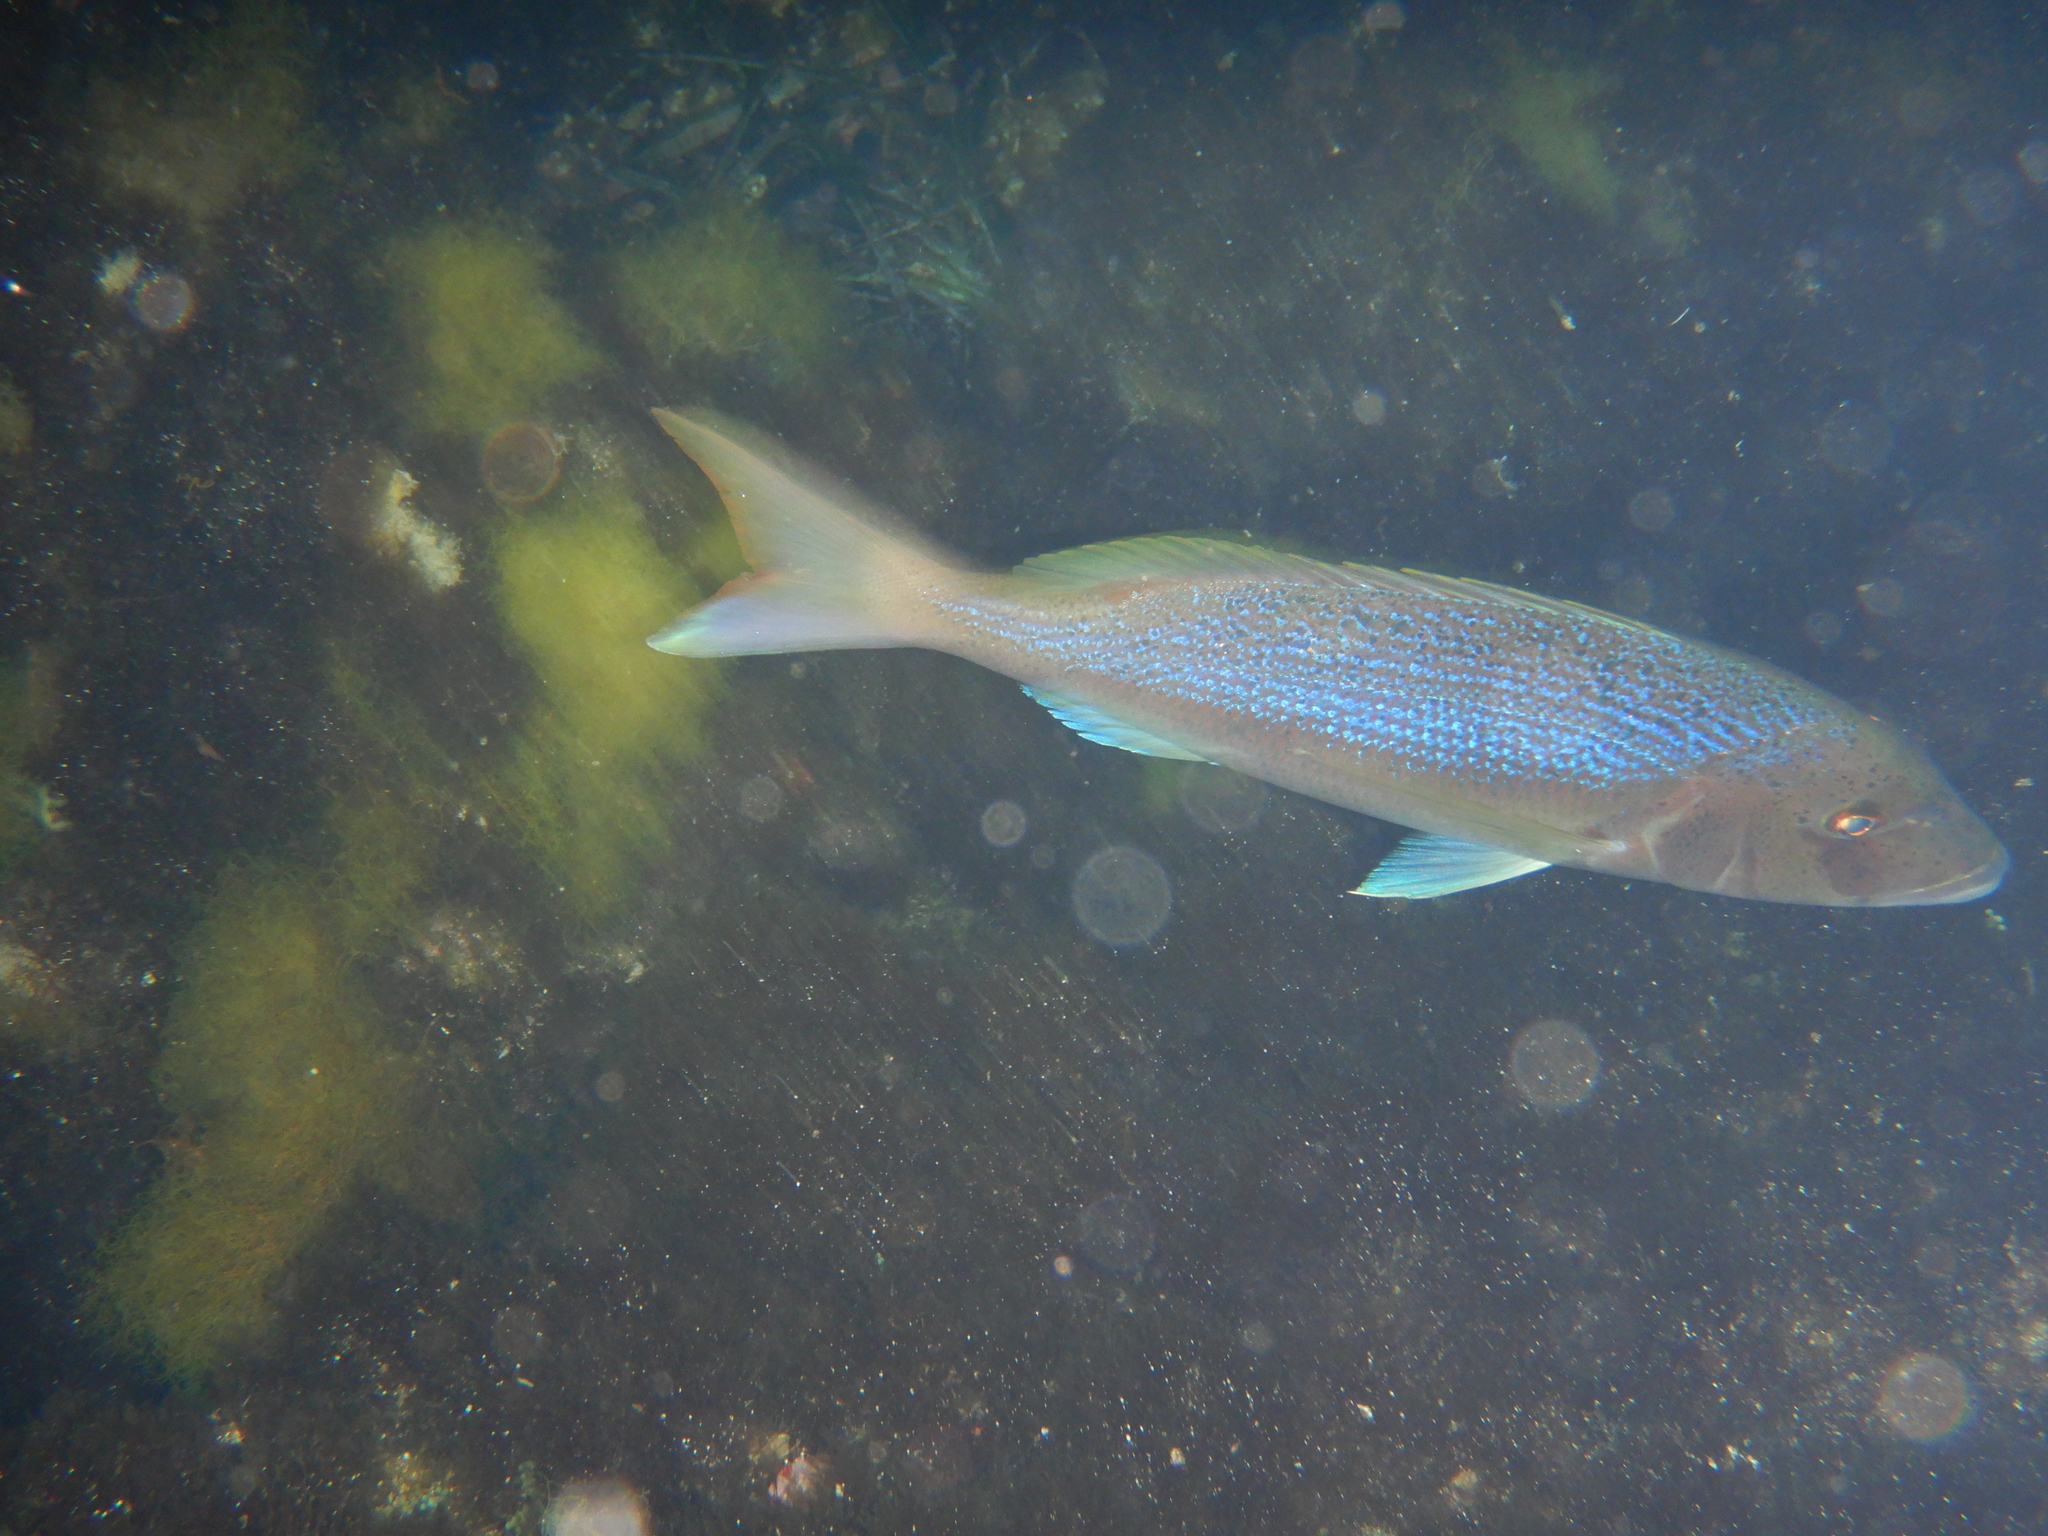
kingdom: Animalia
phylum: Chordata
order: Perciformes
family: Sparidae
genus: Dentex
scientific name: Dentex dentex
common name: Dentex
